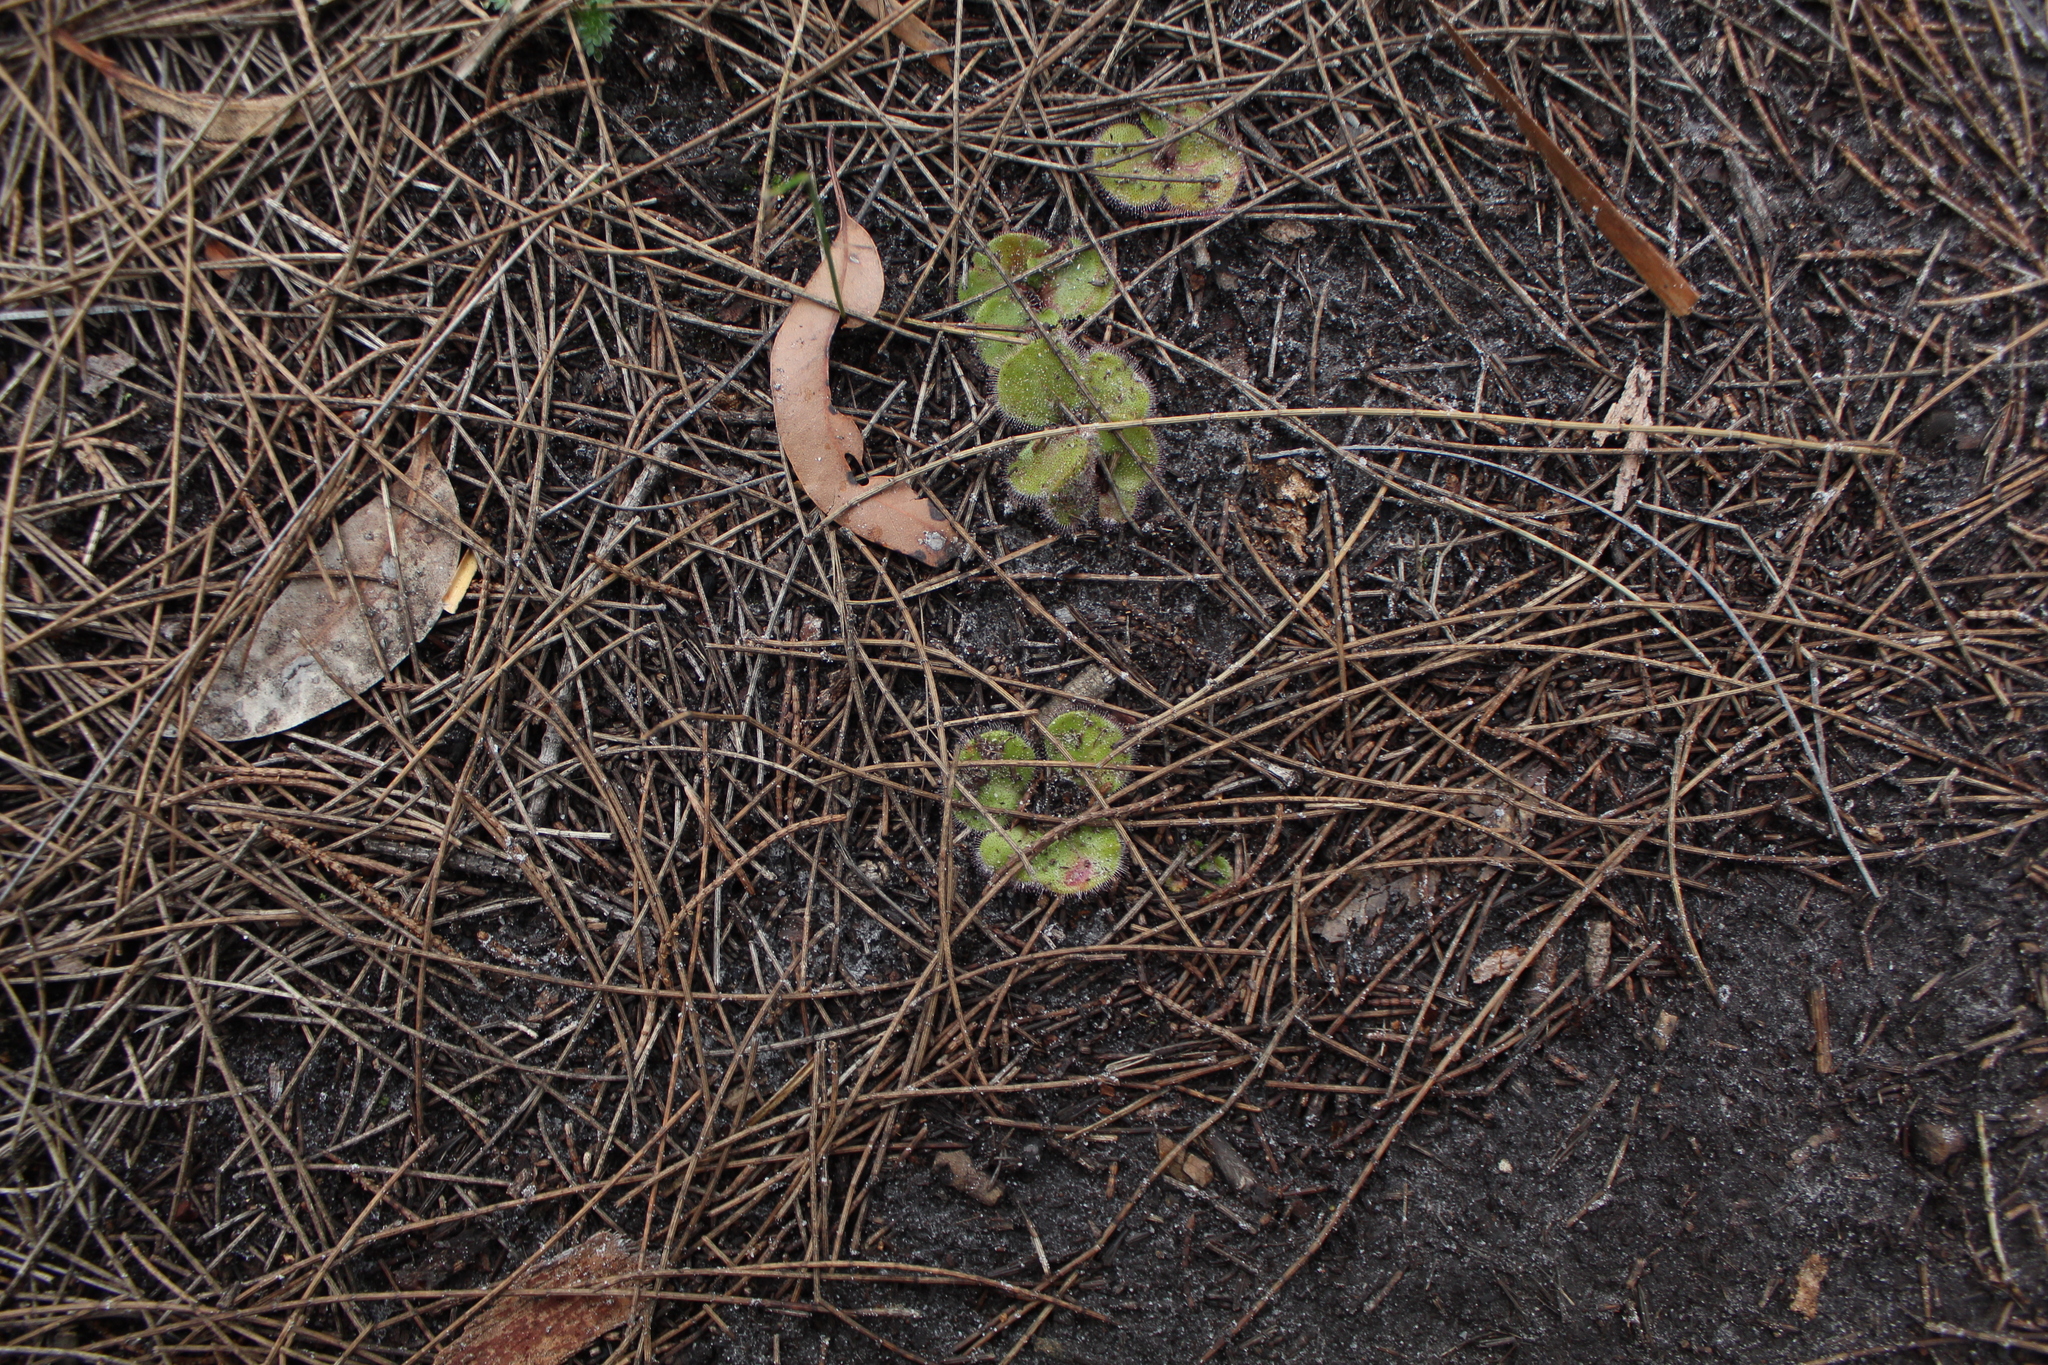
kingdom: Plantae
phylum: Tracheophyta
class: Magnoliopsida
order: Caryophyllales
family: Droseraceae
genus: Drosera
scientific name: Drosera erythrorhiza
